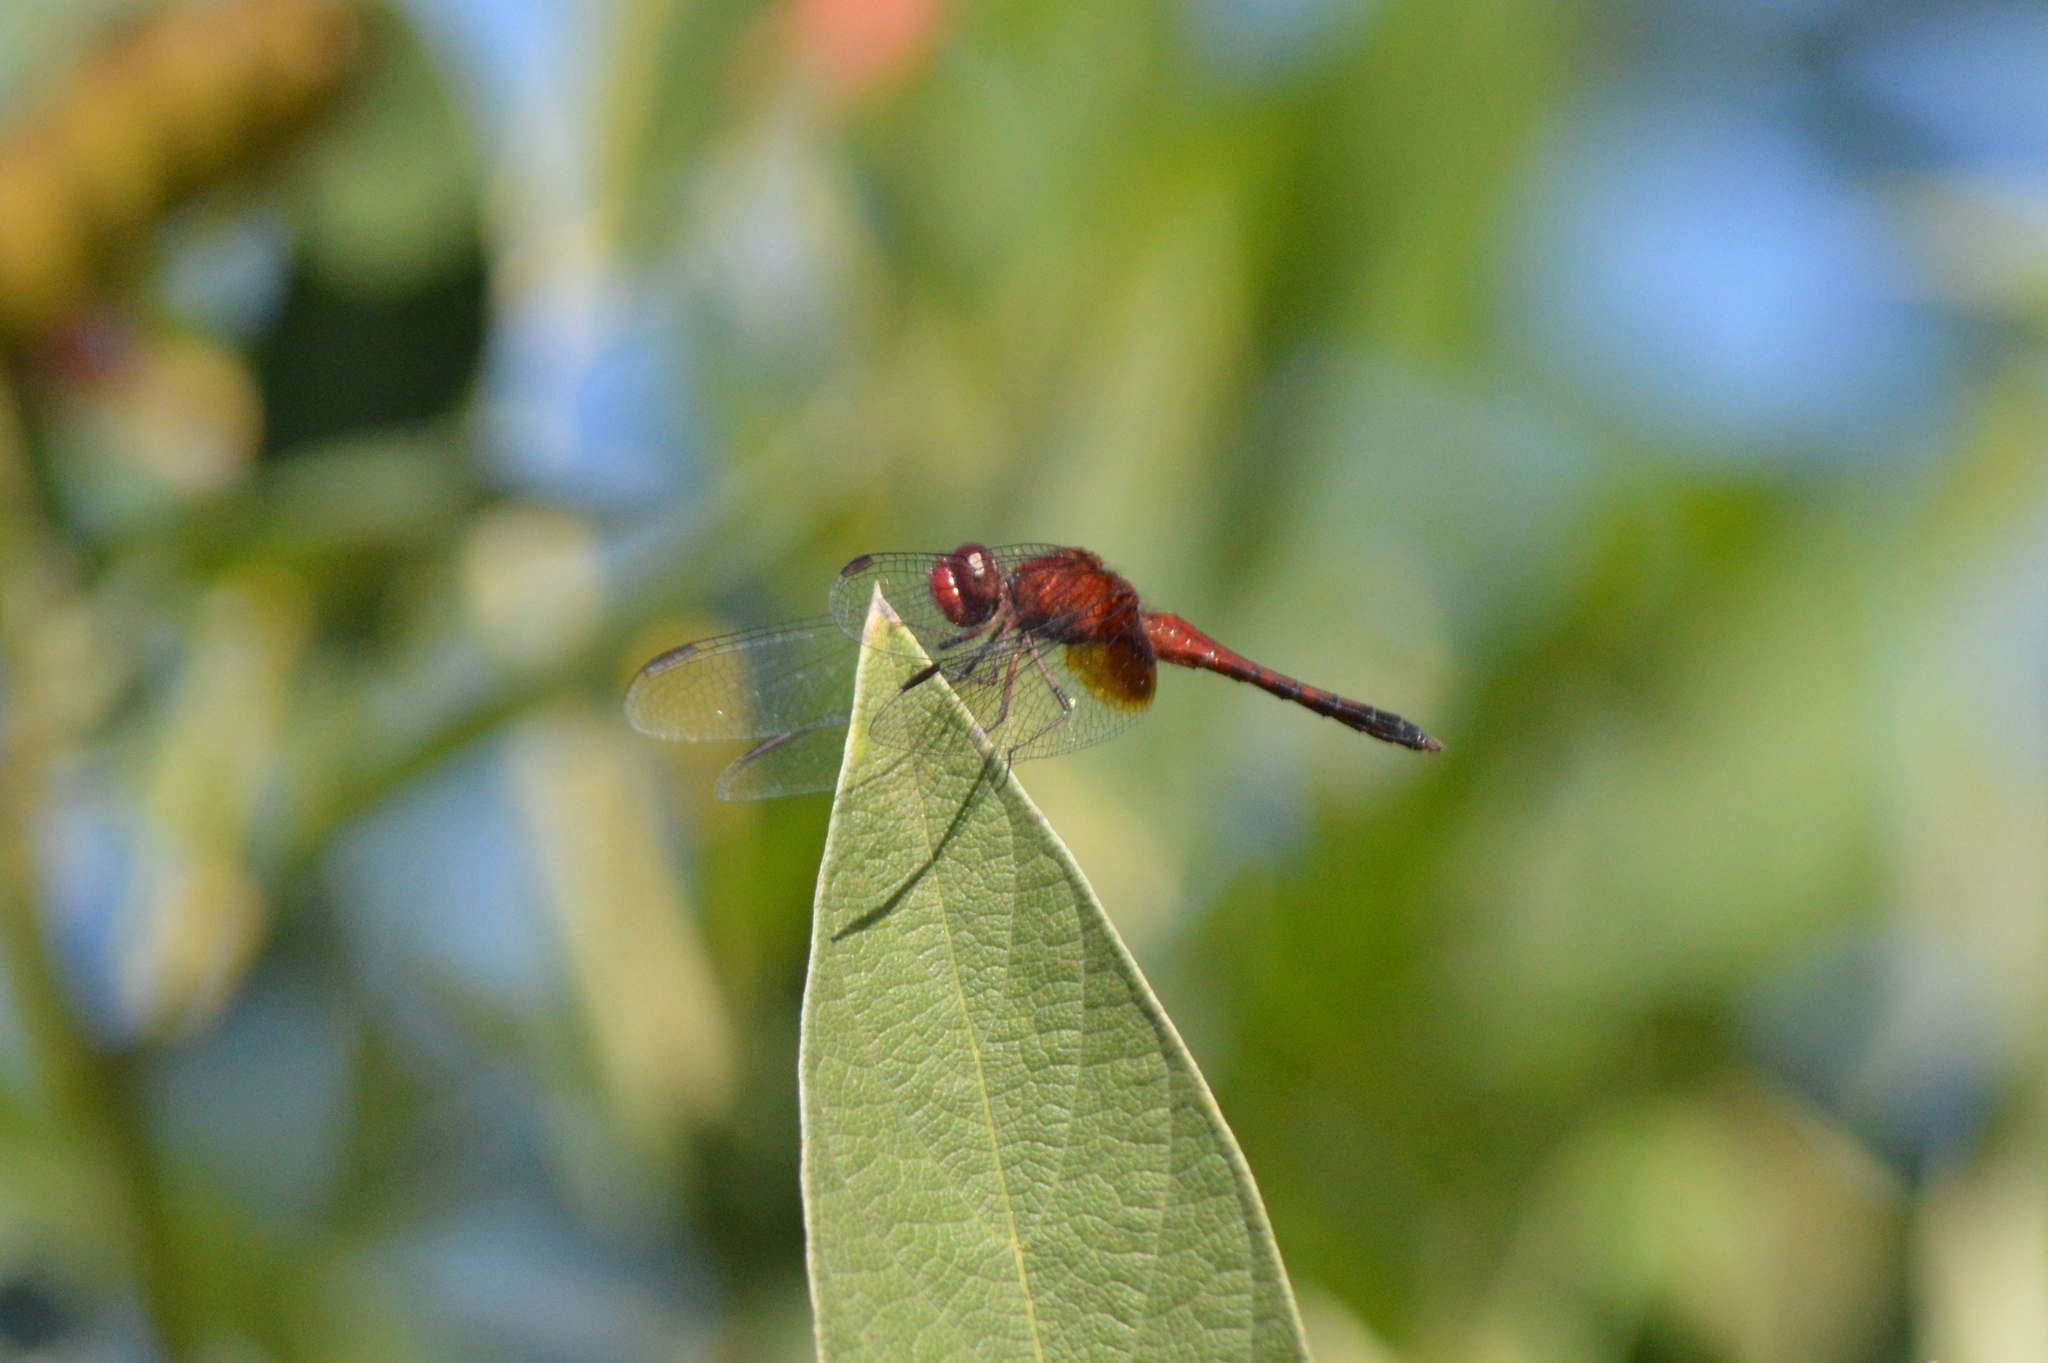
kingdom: Animalia
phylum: Arthropoda
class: Insecta
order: Odonata
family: Libellulidae
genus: Erythrodiplax
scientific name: Erythrodiplax castanea
